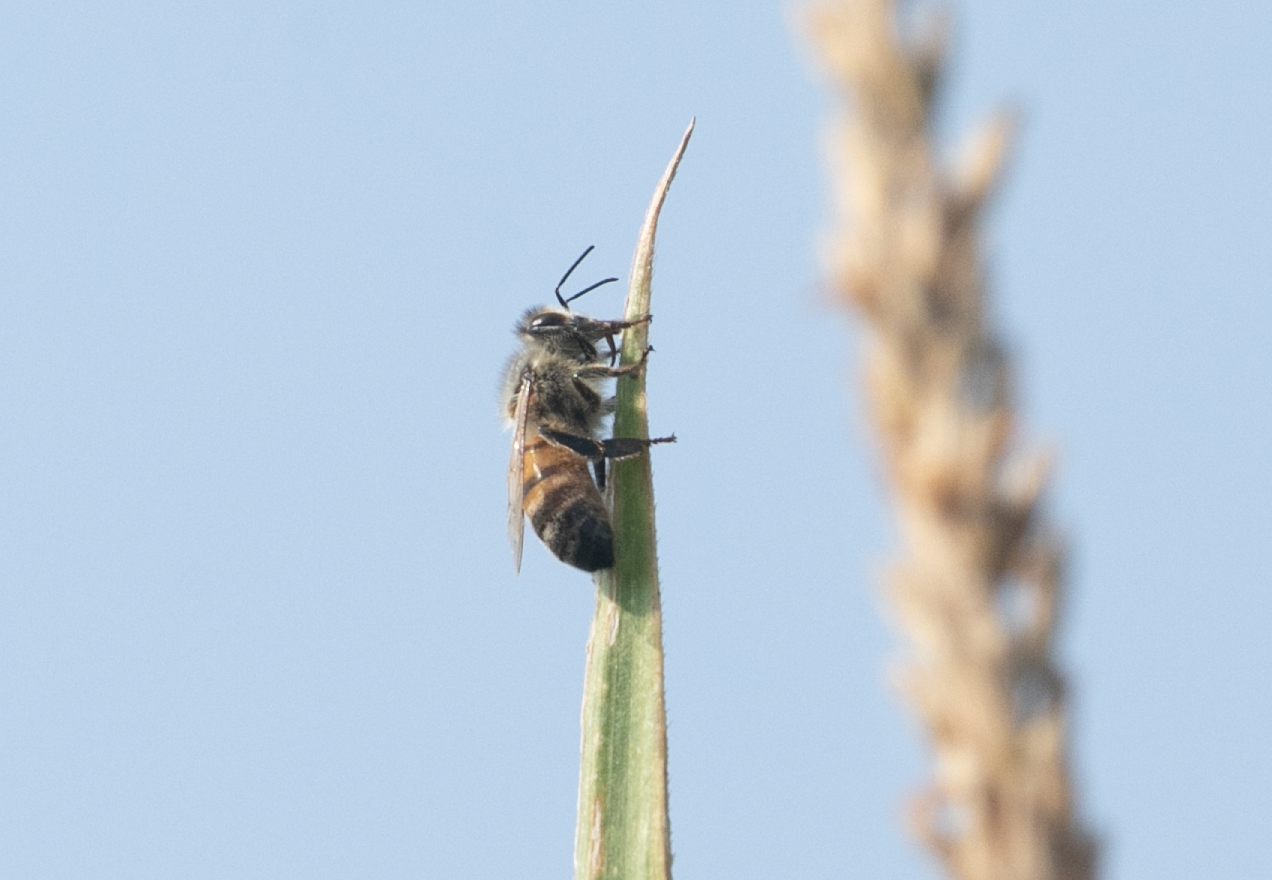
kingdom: Animalia
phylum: Arthropoda
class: Insecta
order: Hymenoptera
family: Apidae
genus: Apis
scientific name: Apis mellifera
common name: Honey bee
